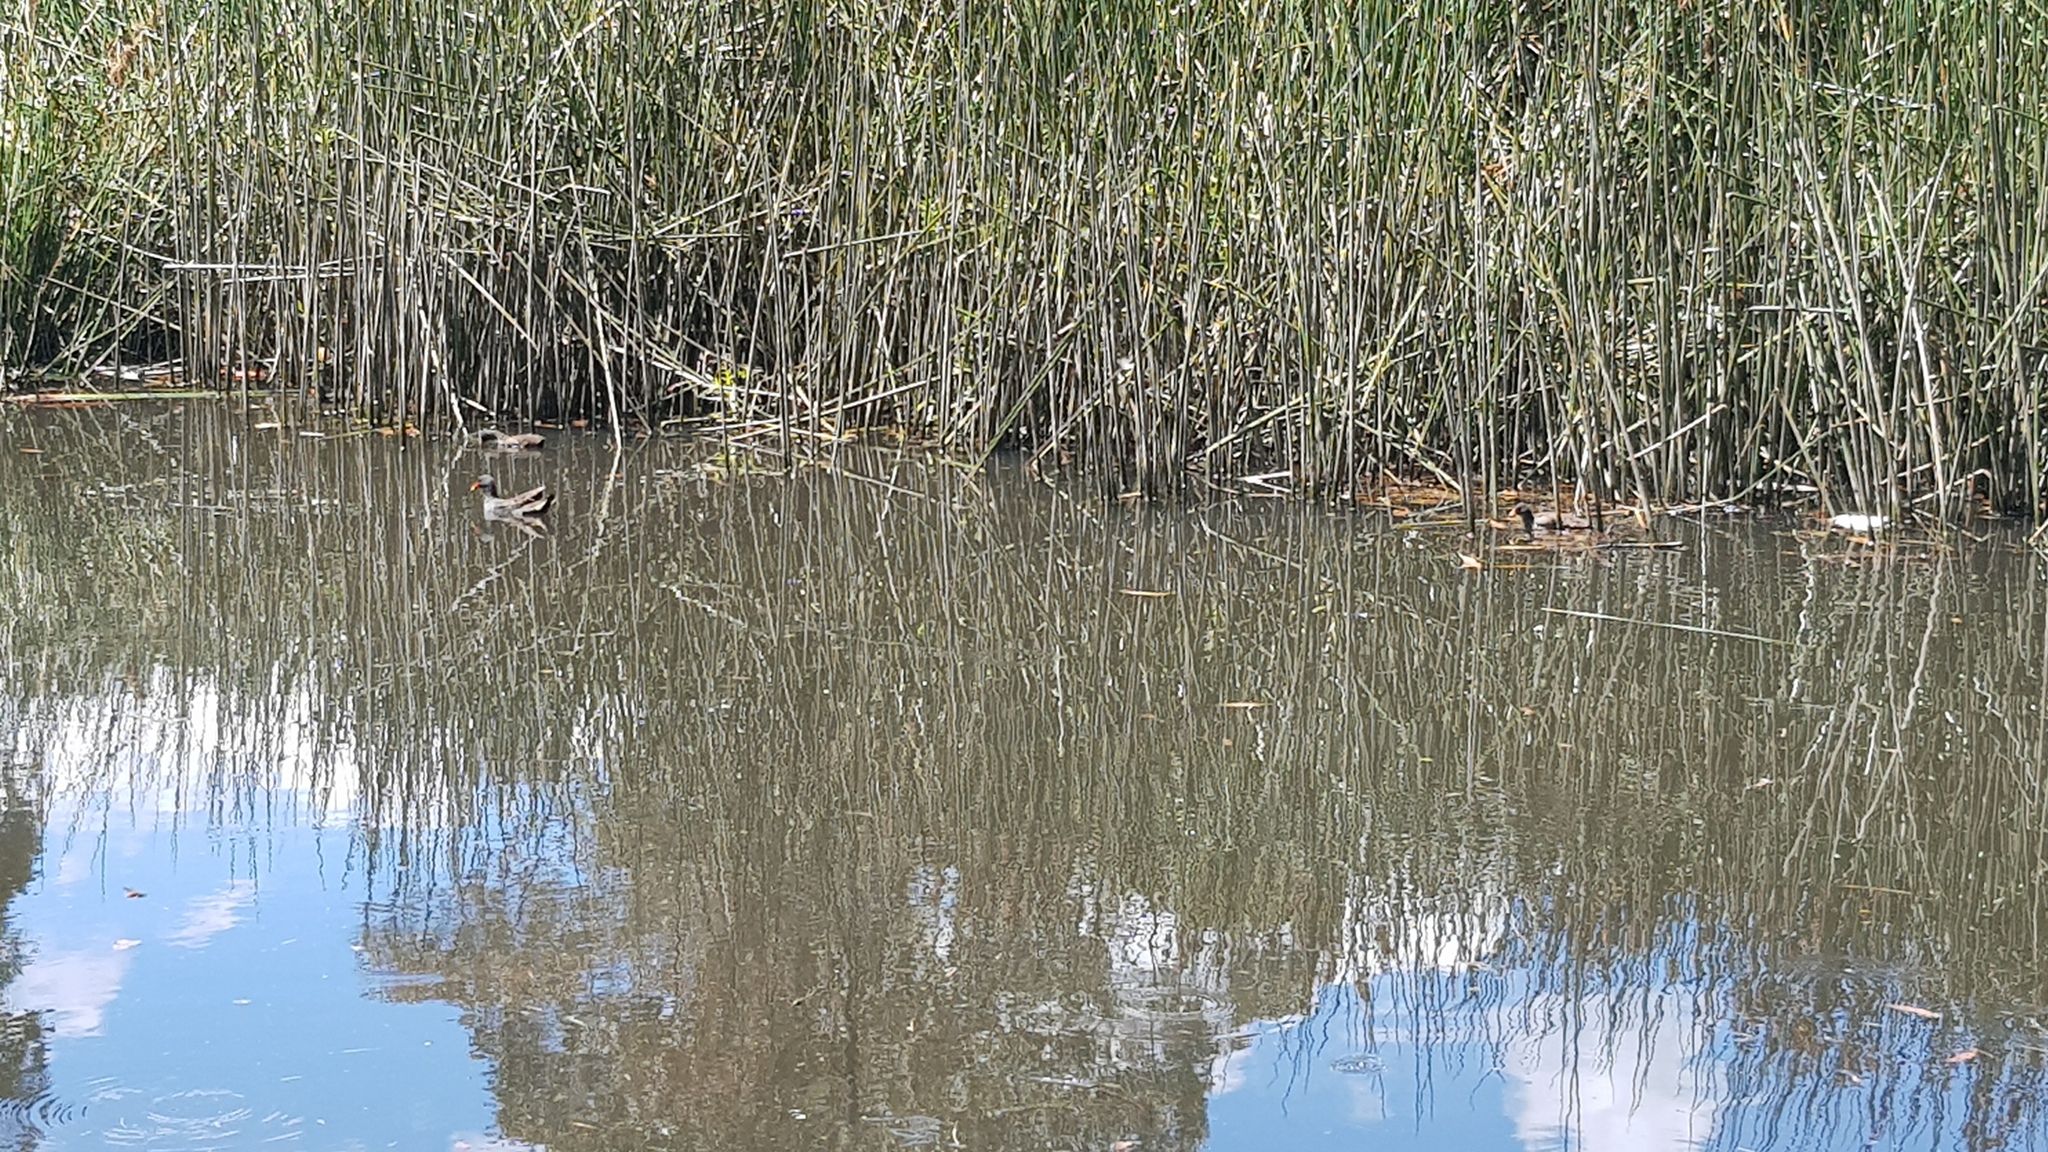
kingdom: Animalia
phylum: Chordata
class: Aves
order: Gruiformes
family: Rallidae
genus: Gallinula
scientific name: Gallinula tenebrosa
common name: Dusky moorhen
